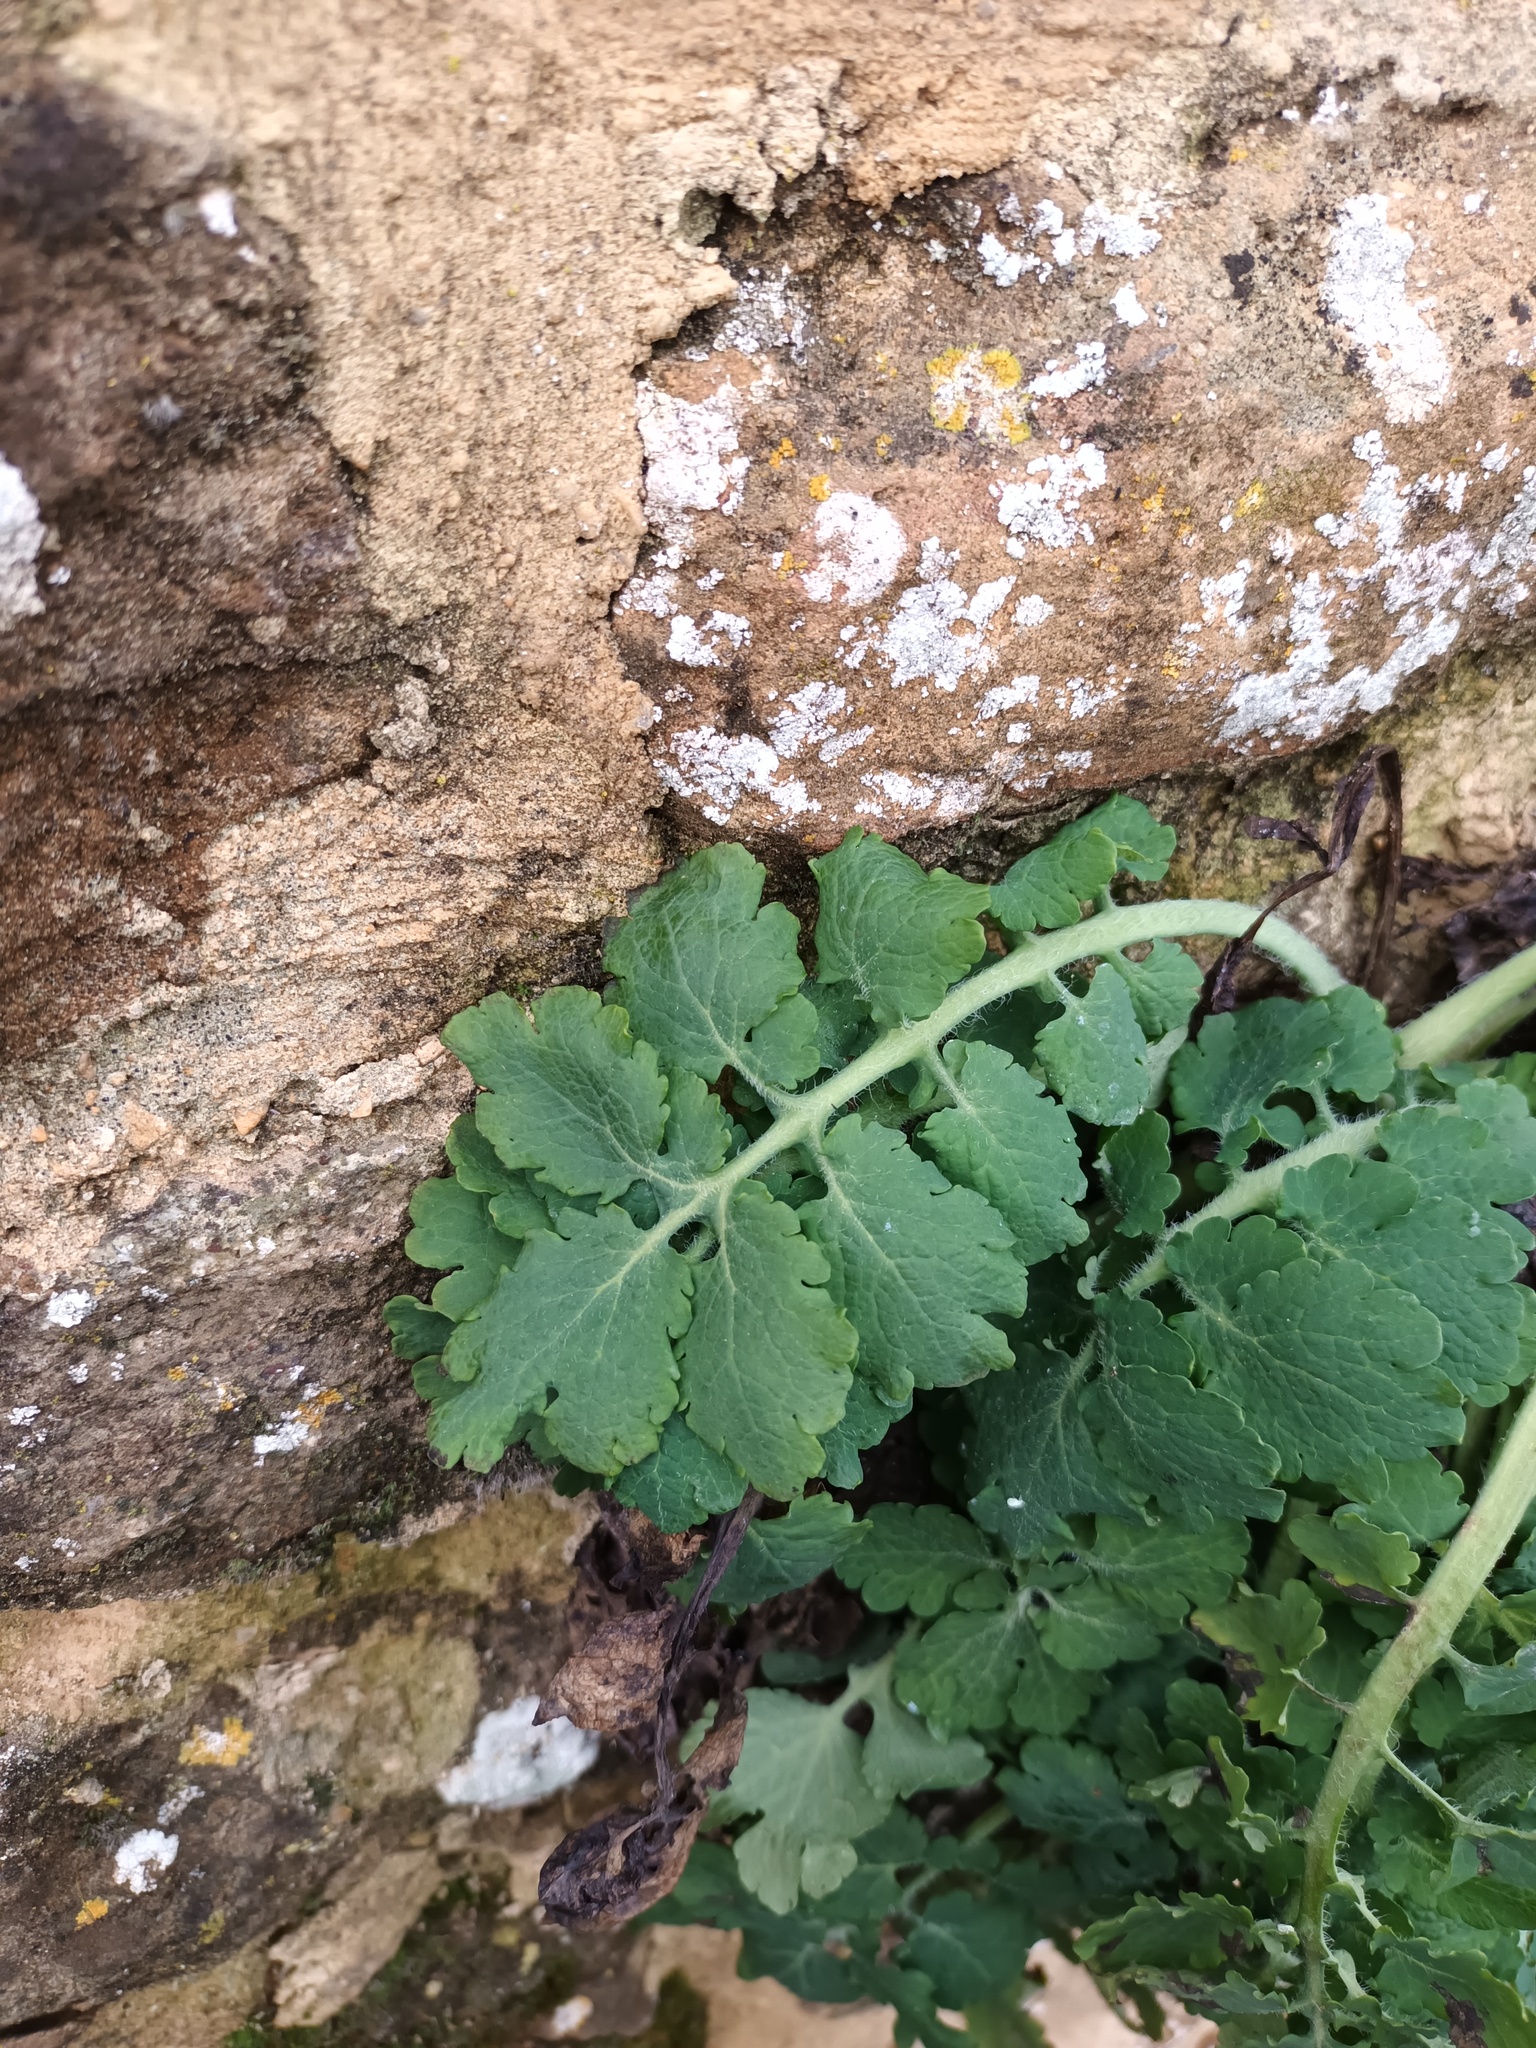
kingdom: Plantae
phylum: Tracheophyta
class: Magnoliopsida
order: Ranunculales
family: Papaveraceae
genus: Chelidonium
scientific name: Chelidonium majus
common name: Greater celandine
